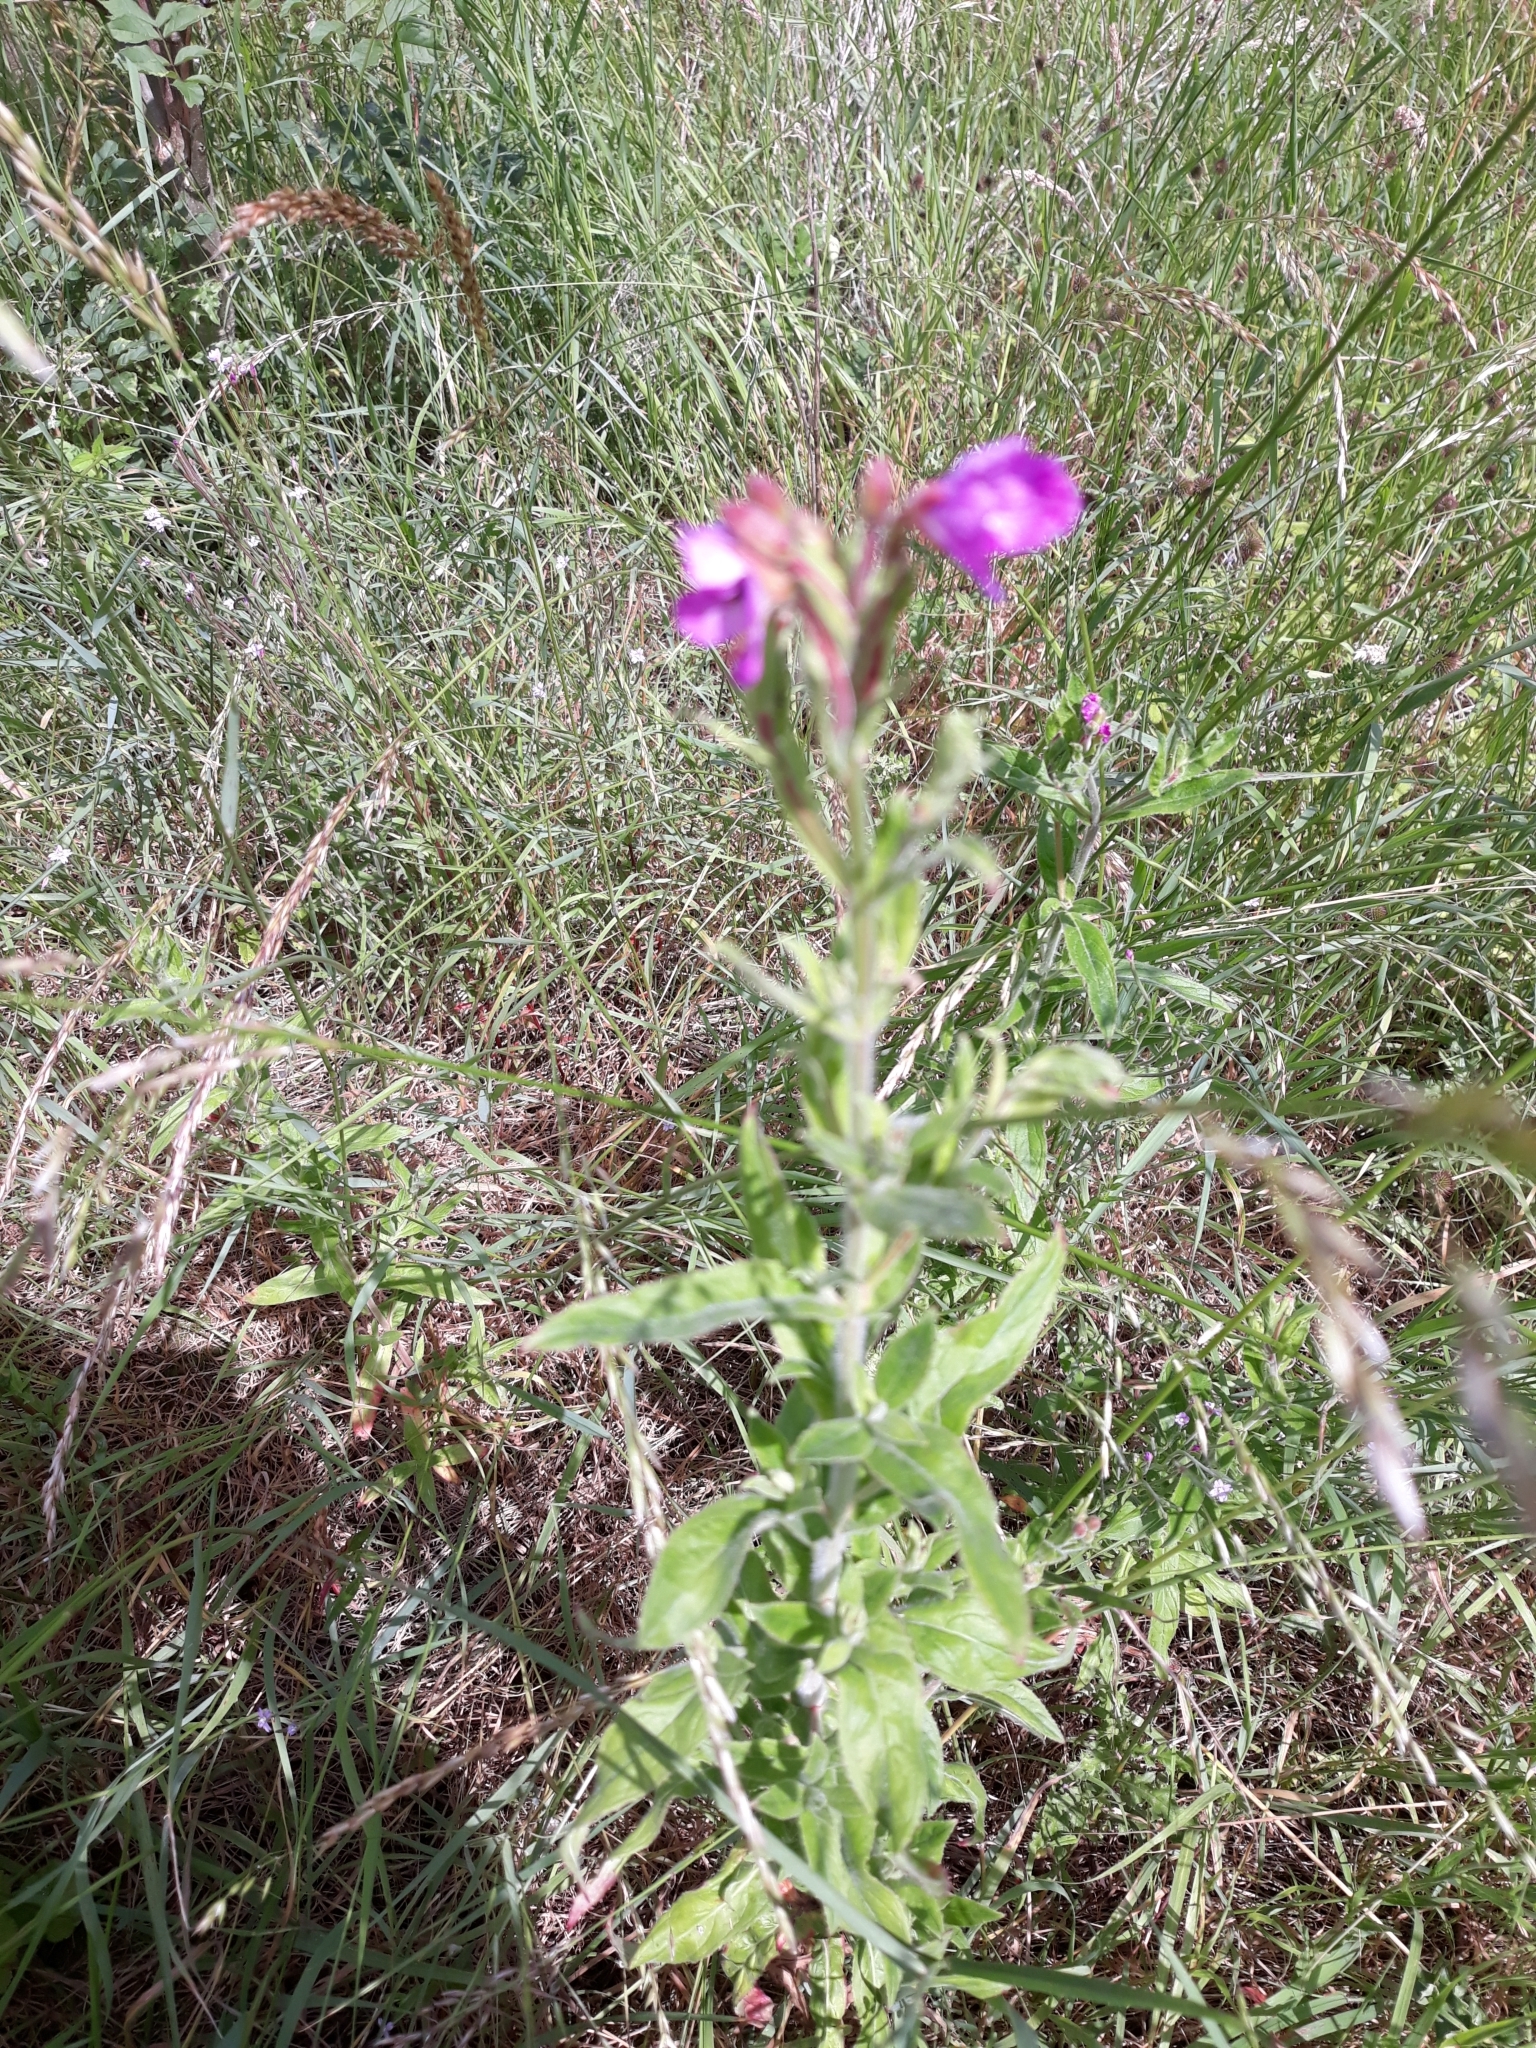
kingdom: Plantae
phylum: Tracheophyta
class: Magnoliopsida
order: Myrtales
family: Onagraceae
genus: Epilobium
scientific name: Epilobium hirsutum
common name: Great willowherb
